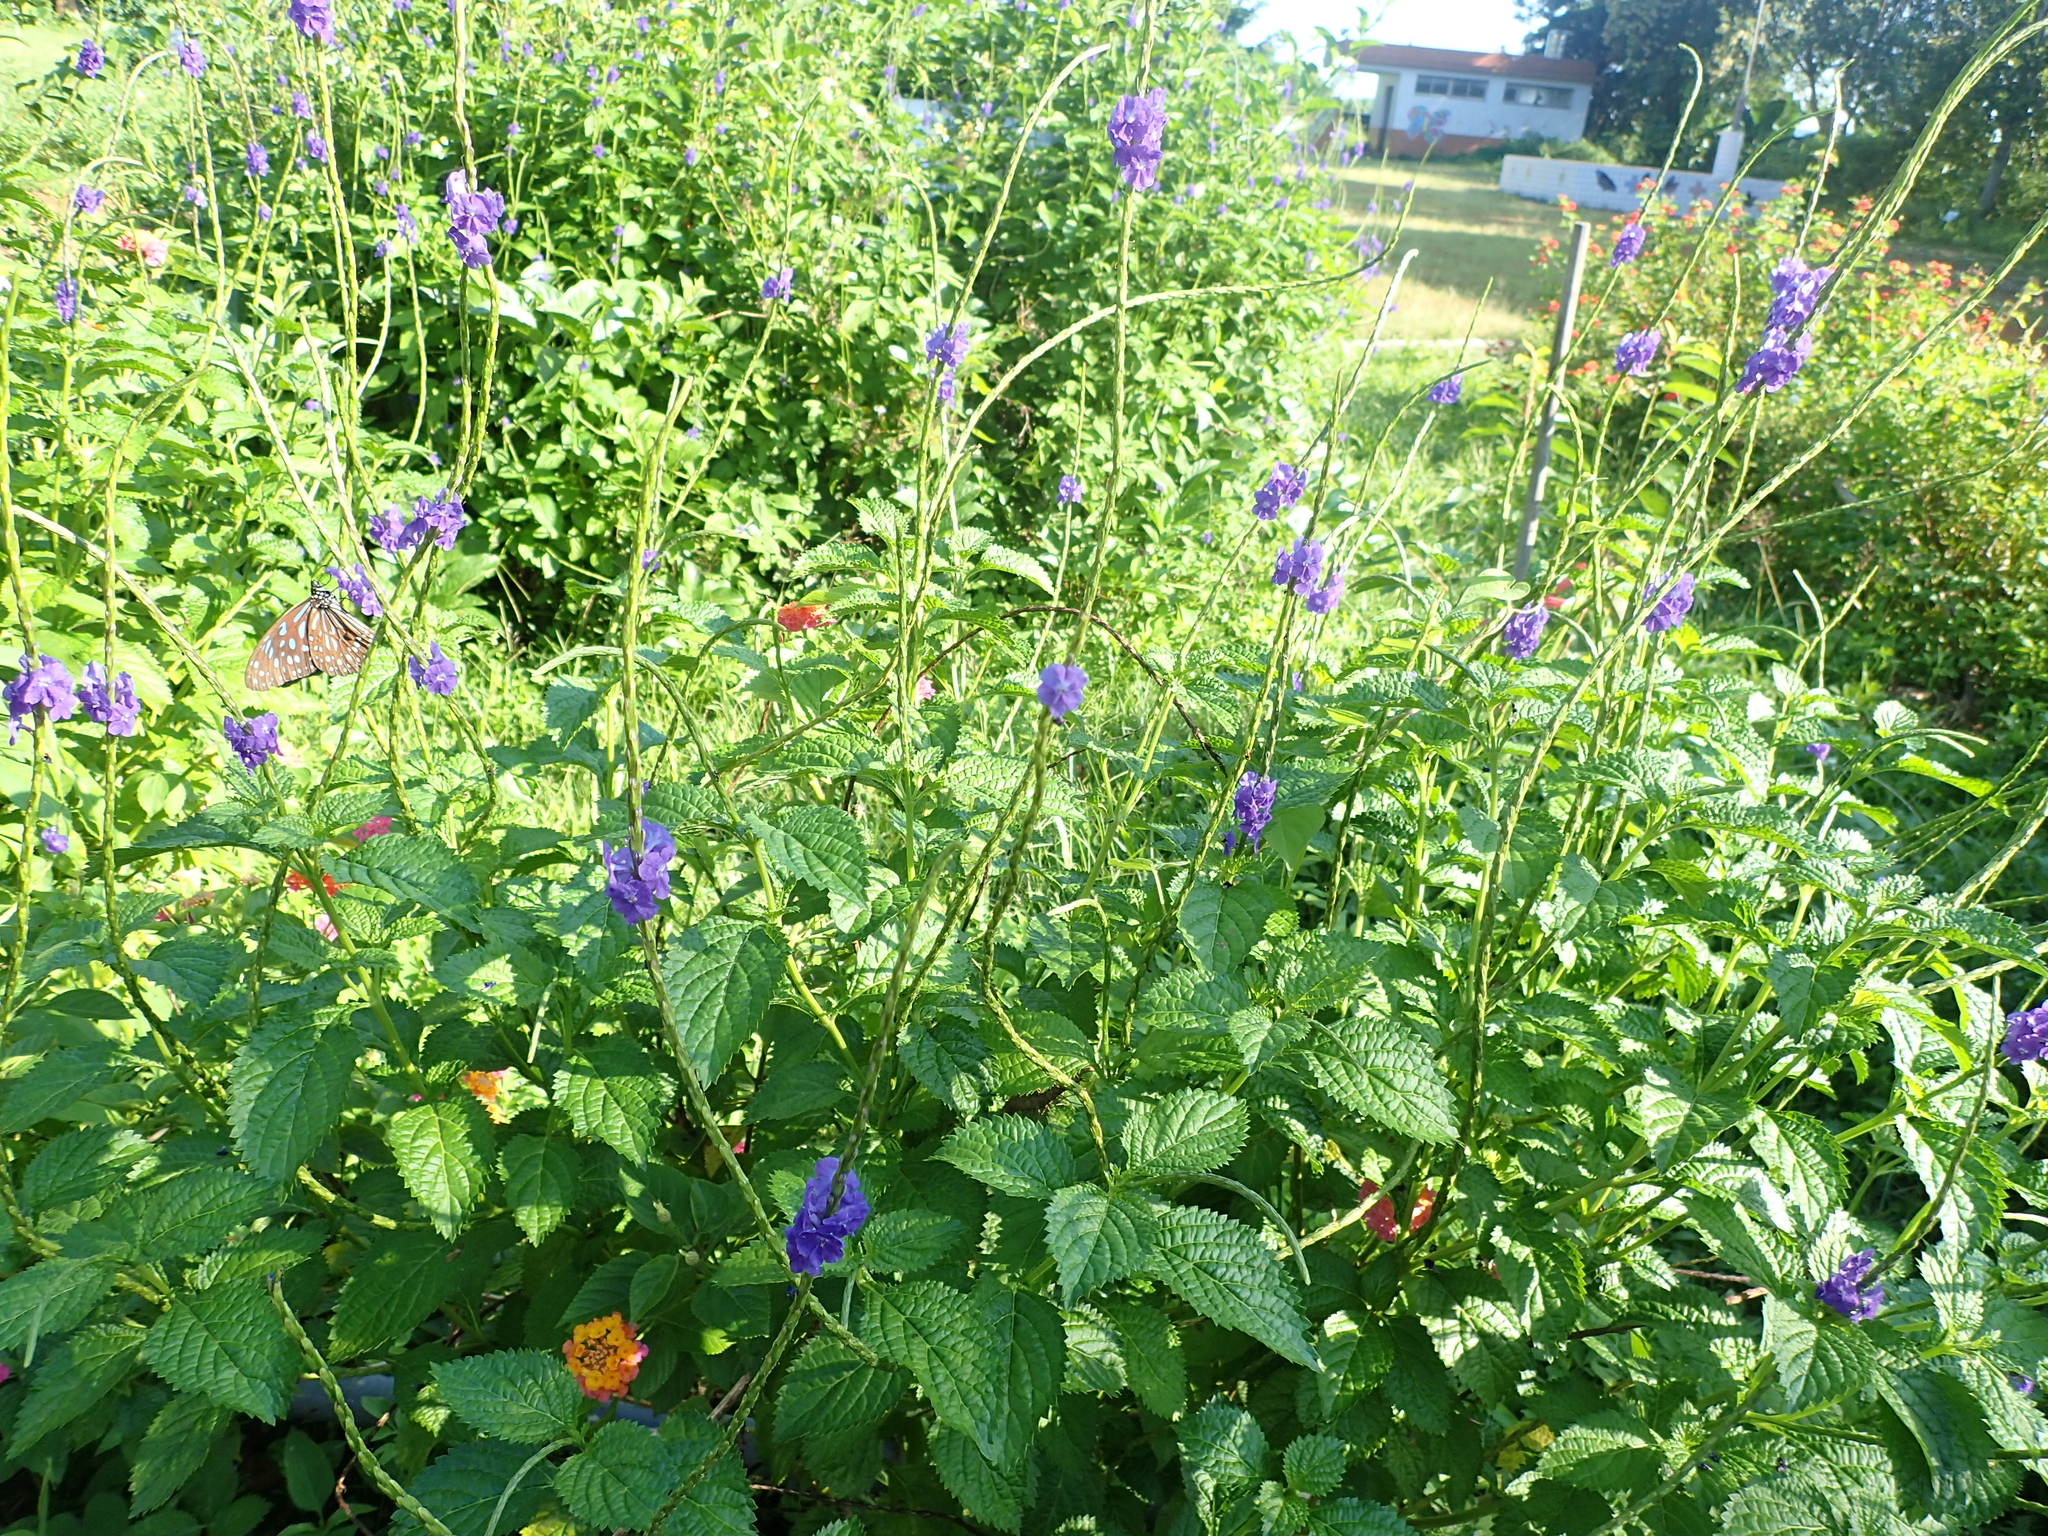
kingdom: Plantae
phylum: Tracheophyta
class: Magnoliopsida
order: Lamiales
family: Verbenaceae
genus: Stachytarpheta
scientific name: Stachytarpheta jamaicensis
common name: Light-blue snakeweed
